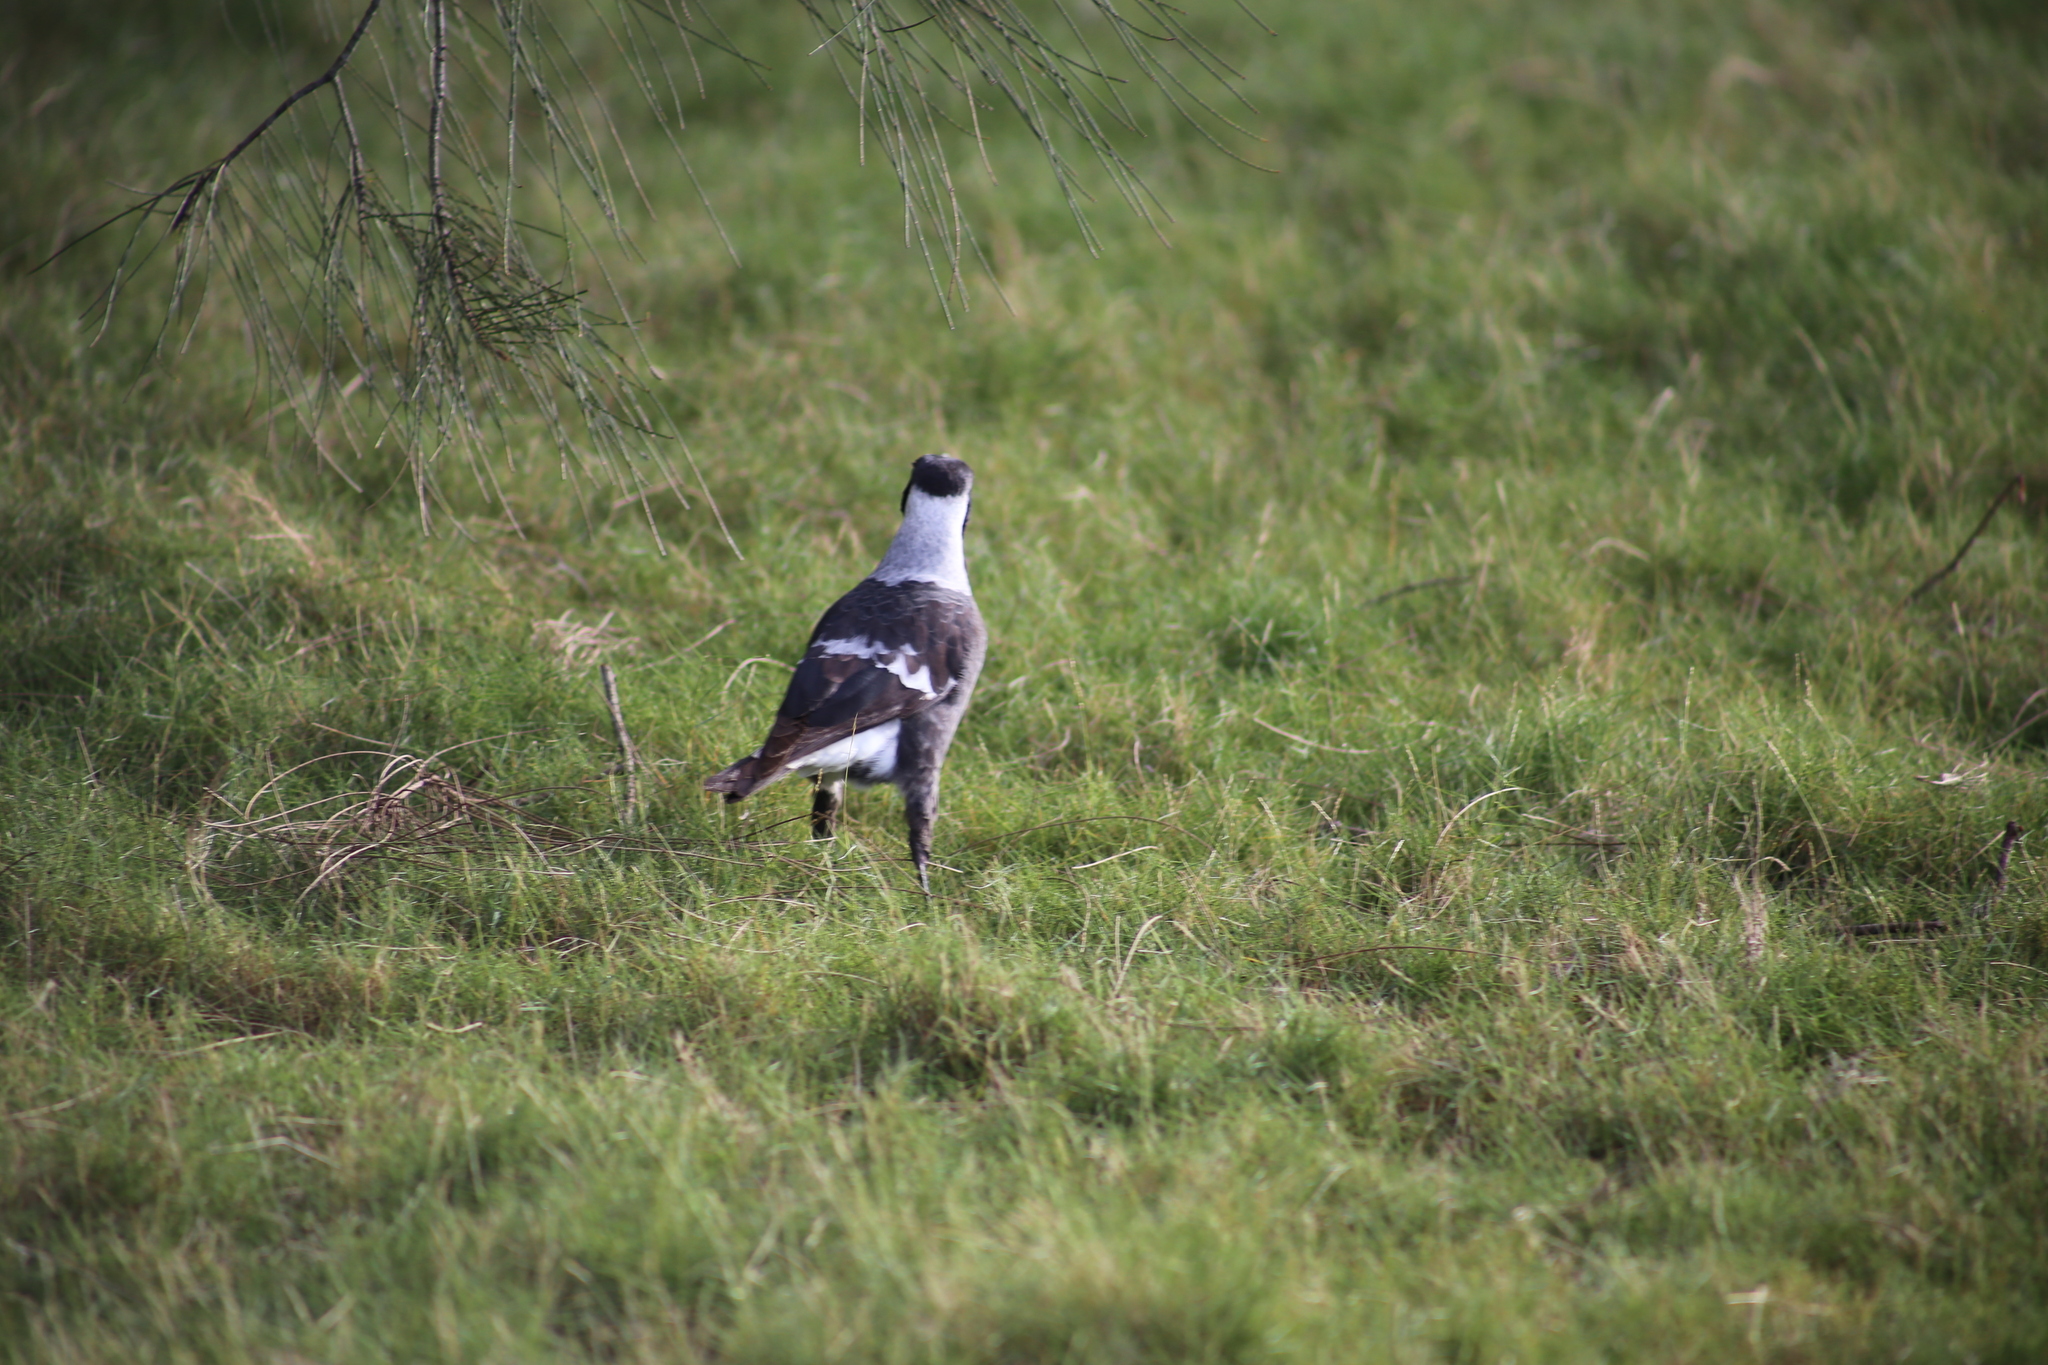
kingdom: Animalia
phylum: Chordata
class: Aves
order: Passeriformes
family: Cracticidae
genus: Gymnorhina
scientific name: Gymnorhina tibicen
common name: Australian magpie
